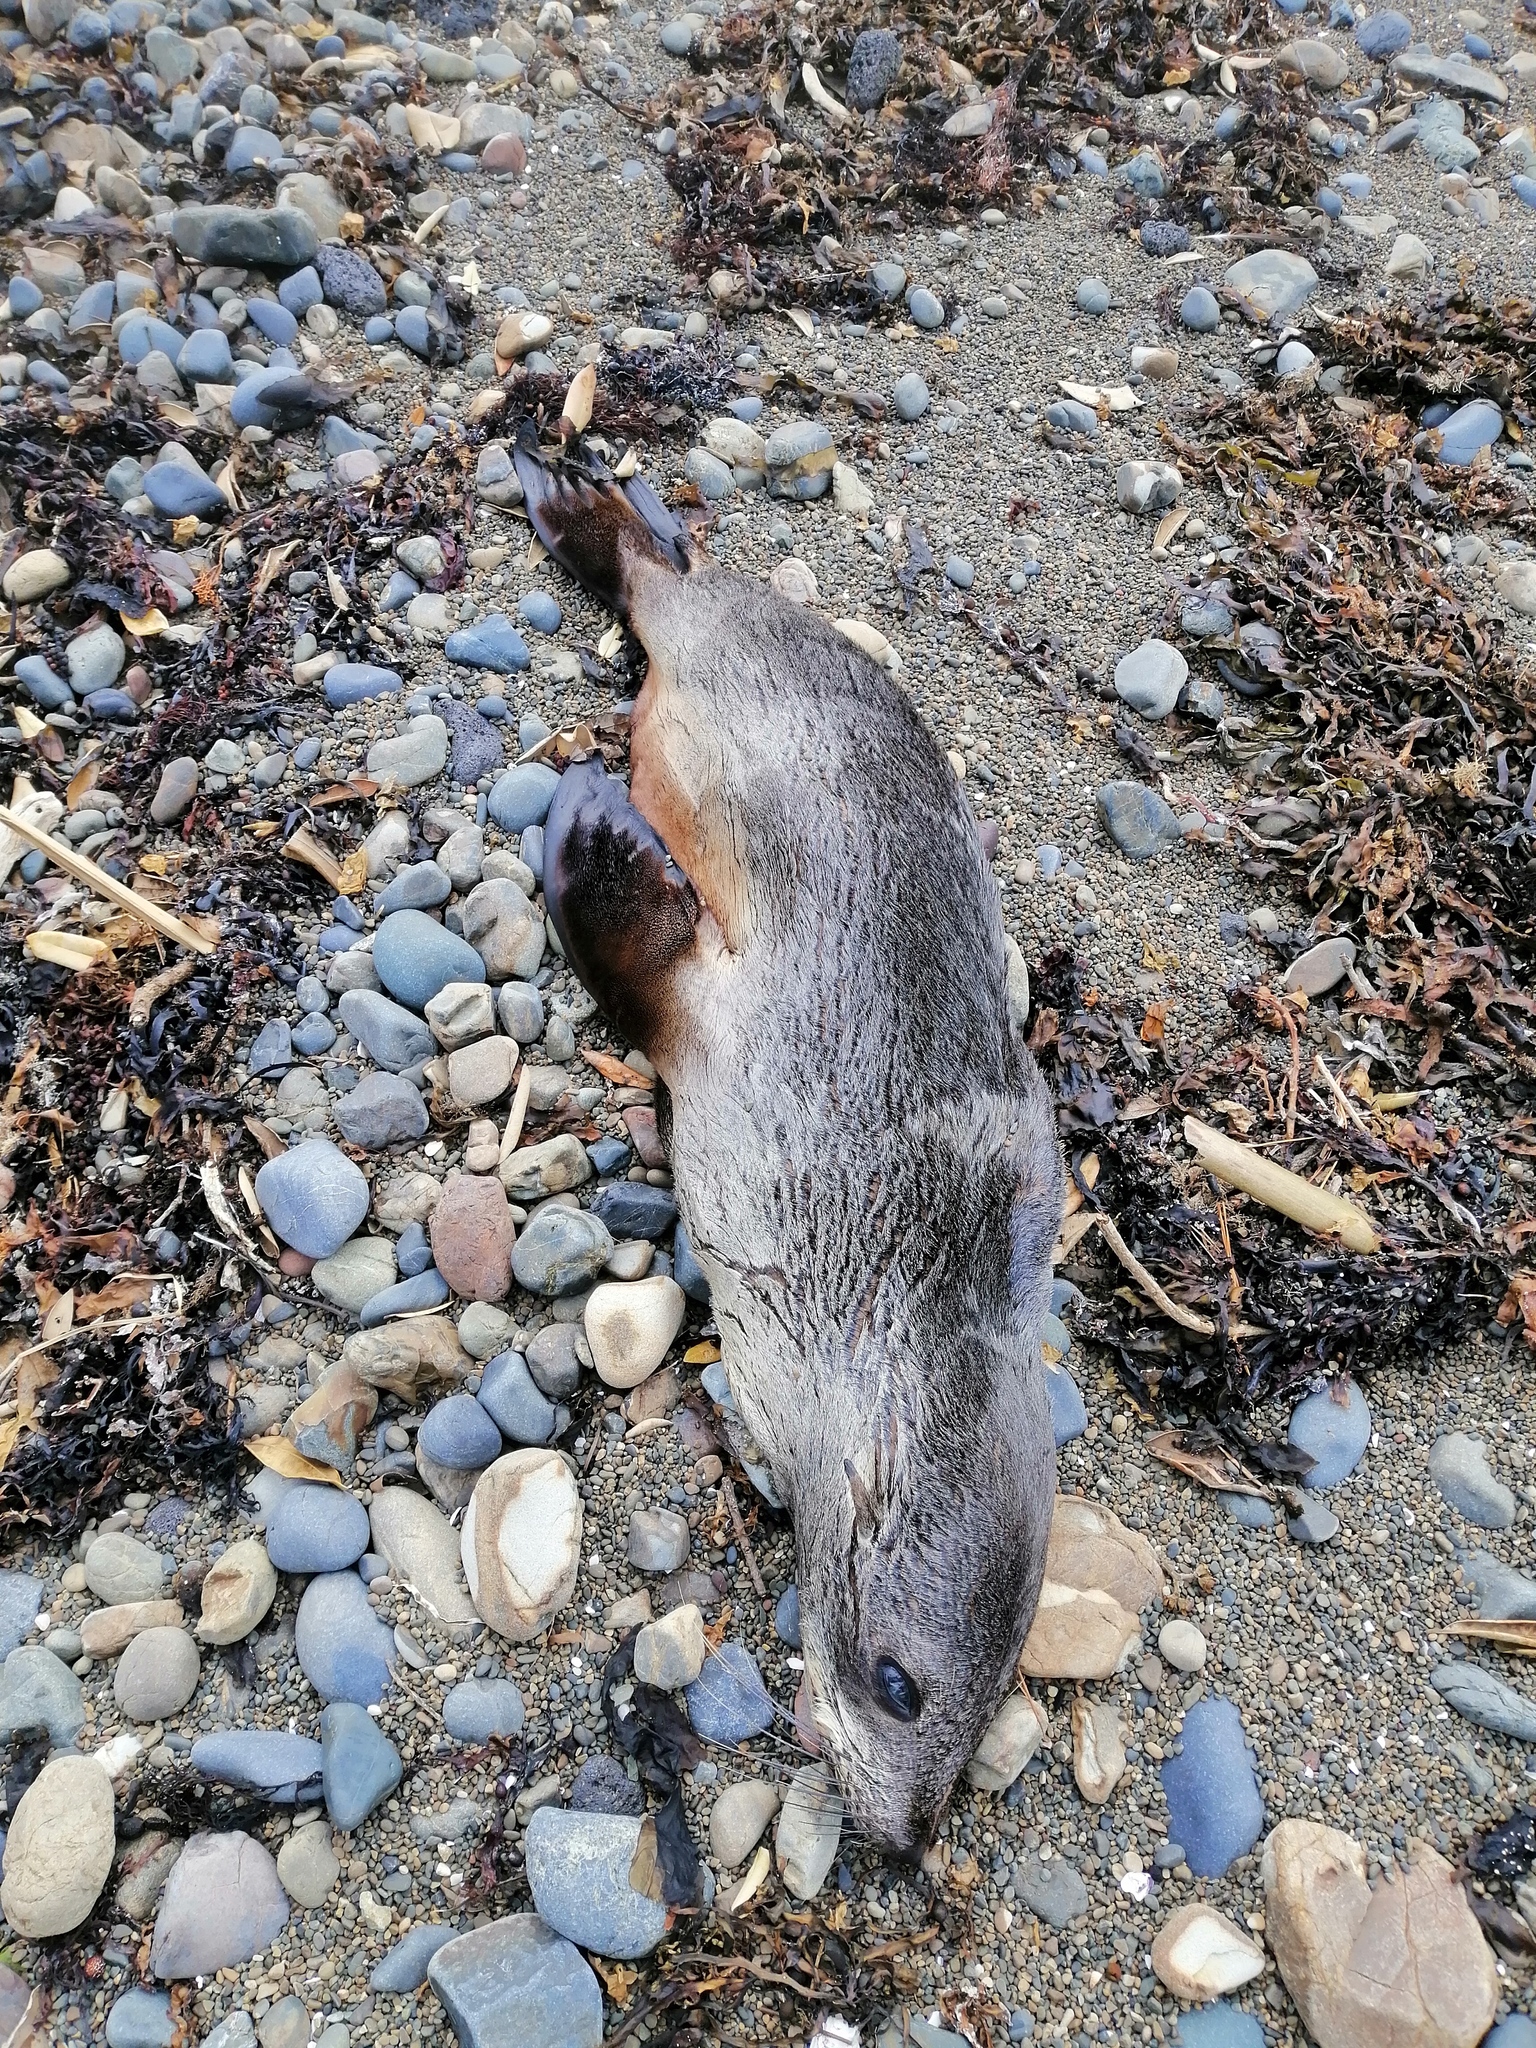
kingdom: Animalia
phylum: Chordata
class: Mammalia
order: Carnivora
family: Otariidae
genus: Arctocephalus
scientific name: Arctocephalus forsteri
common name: New zealand fur seal
